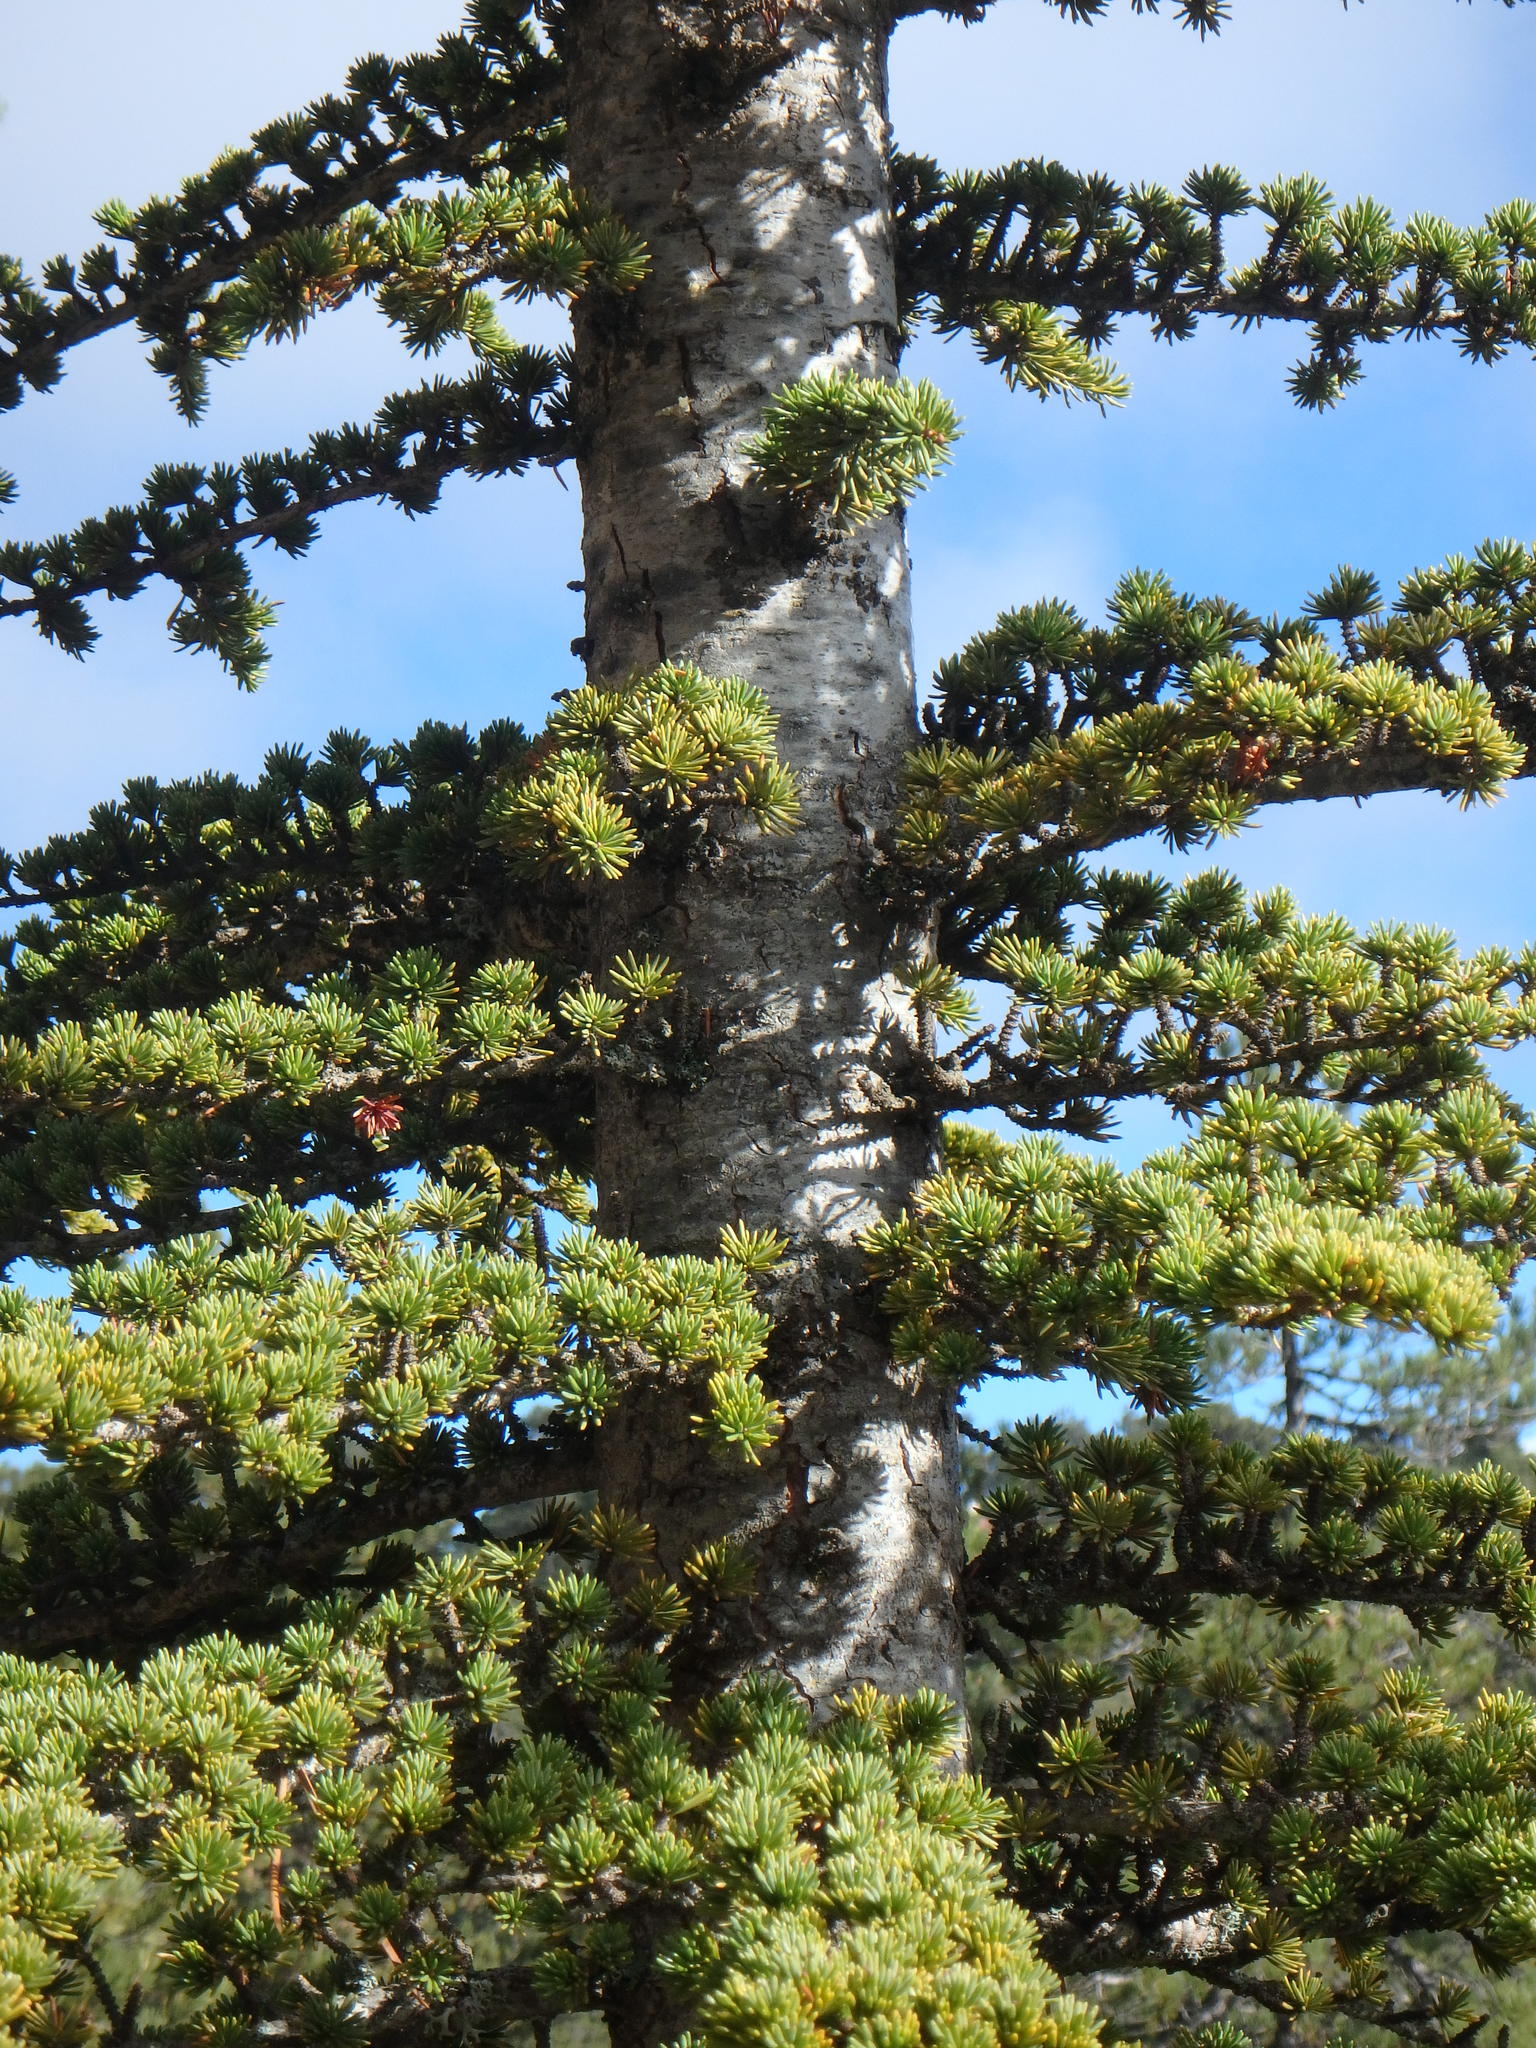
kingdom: Plantae
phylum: Tracheophyta
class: Pinopsida
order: Pinales
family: Pinaceae
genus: Cedrus
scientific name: Cedrus brevifolia
